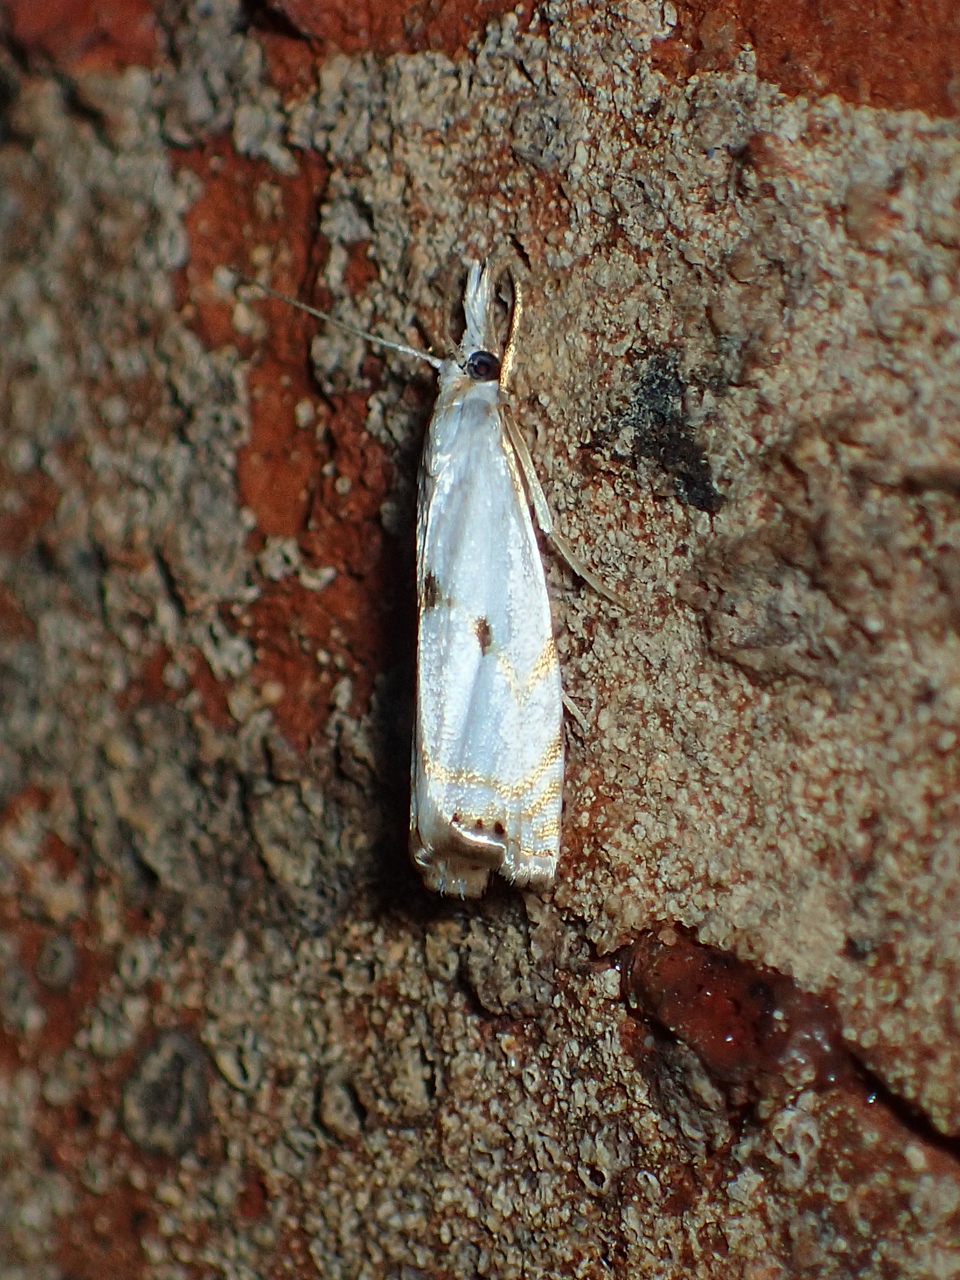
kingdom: Animalia
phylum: Arthropoda
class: Insecta
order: Lepidoptera
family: Crambidae
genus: Microcrambus
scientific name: Microcrambus biguttellus
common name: Gold-stripe grass-veneer moth
